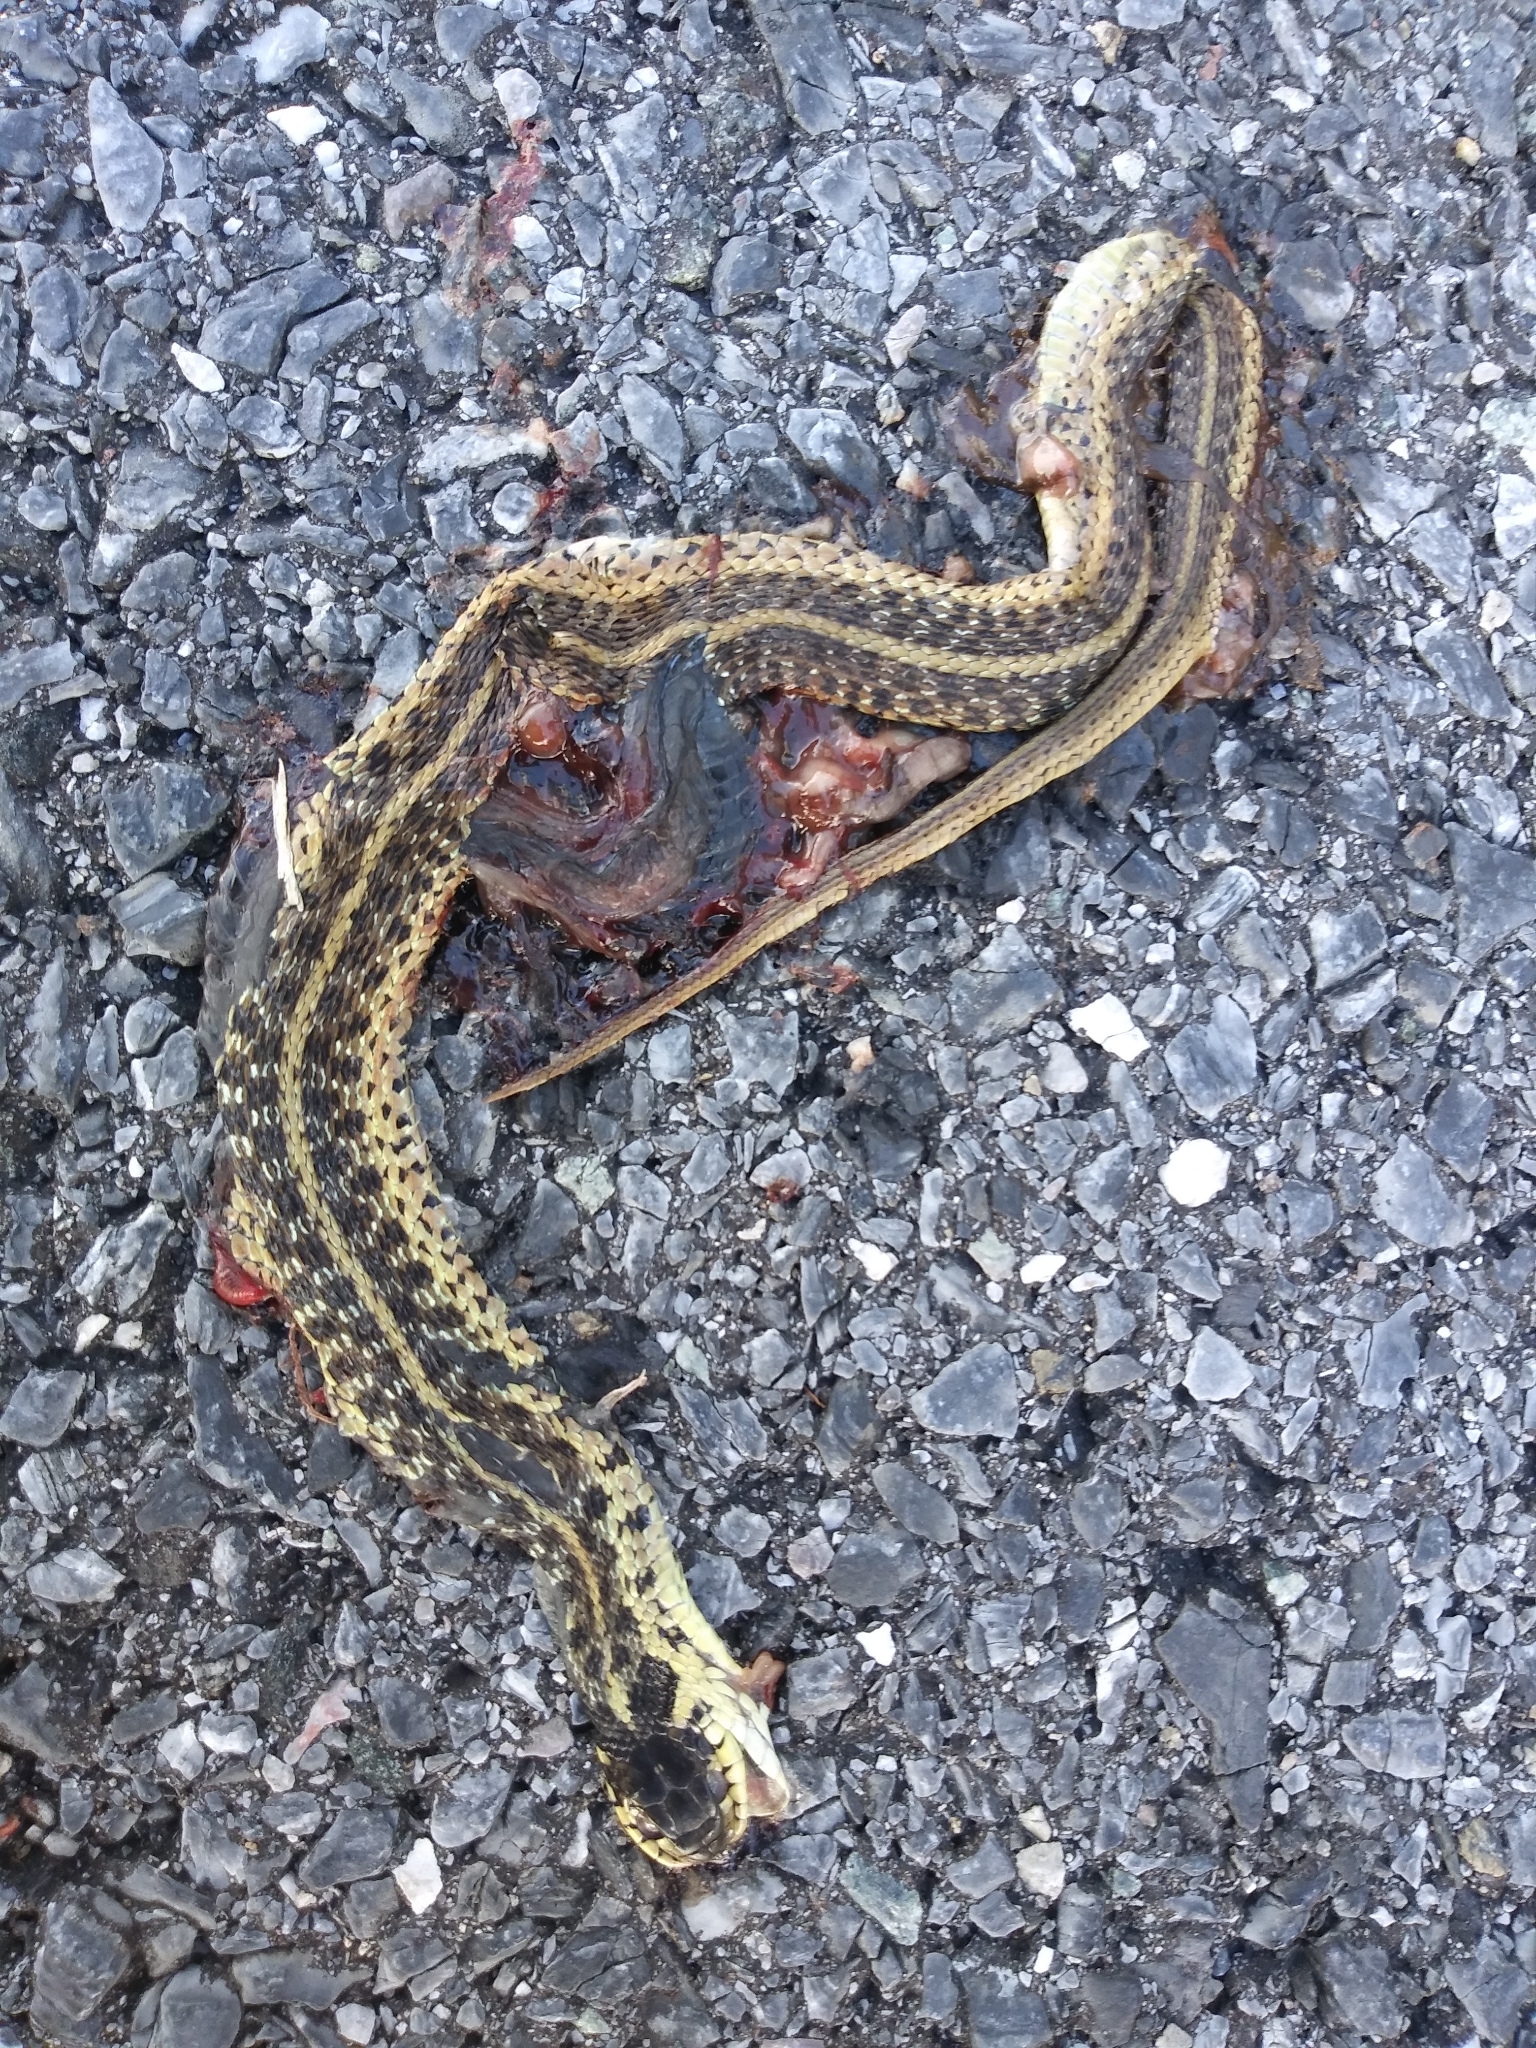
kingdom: Animalia
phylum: Chordata
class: Squamata
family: Colubridae
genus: Thamnophis
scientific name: Thamnophis sirtalis
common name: Common garter snake
